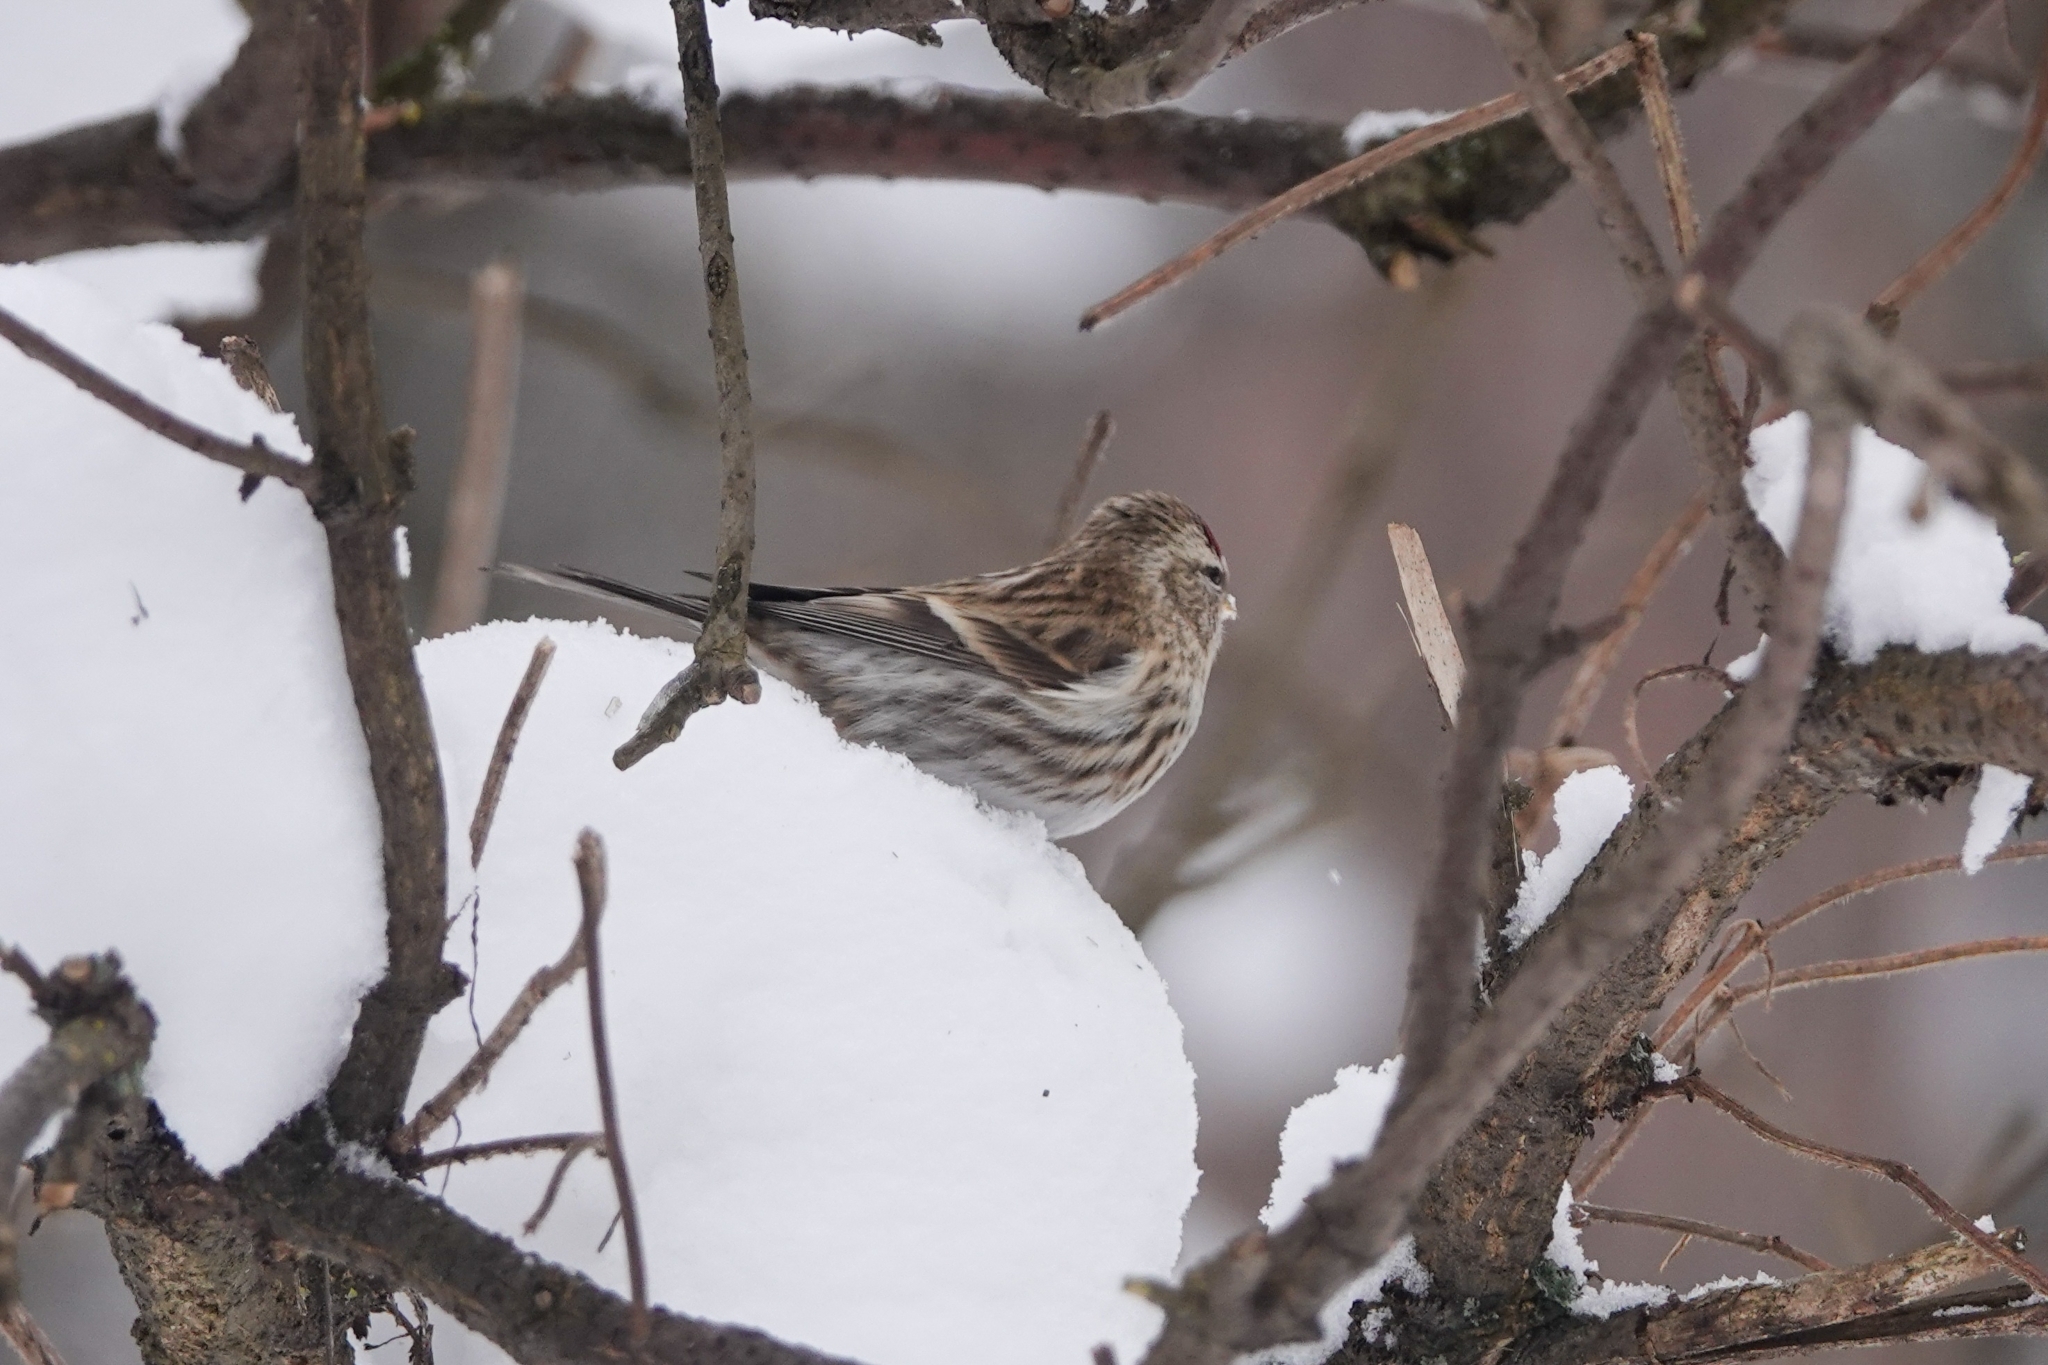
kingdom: Animalia
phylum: Chordata
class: Aves
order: Passeriformes
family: Fringillidae
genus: Acanthis
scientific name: Acanthis flammea
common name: Common redpoll
